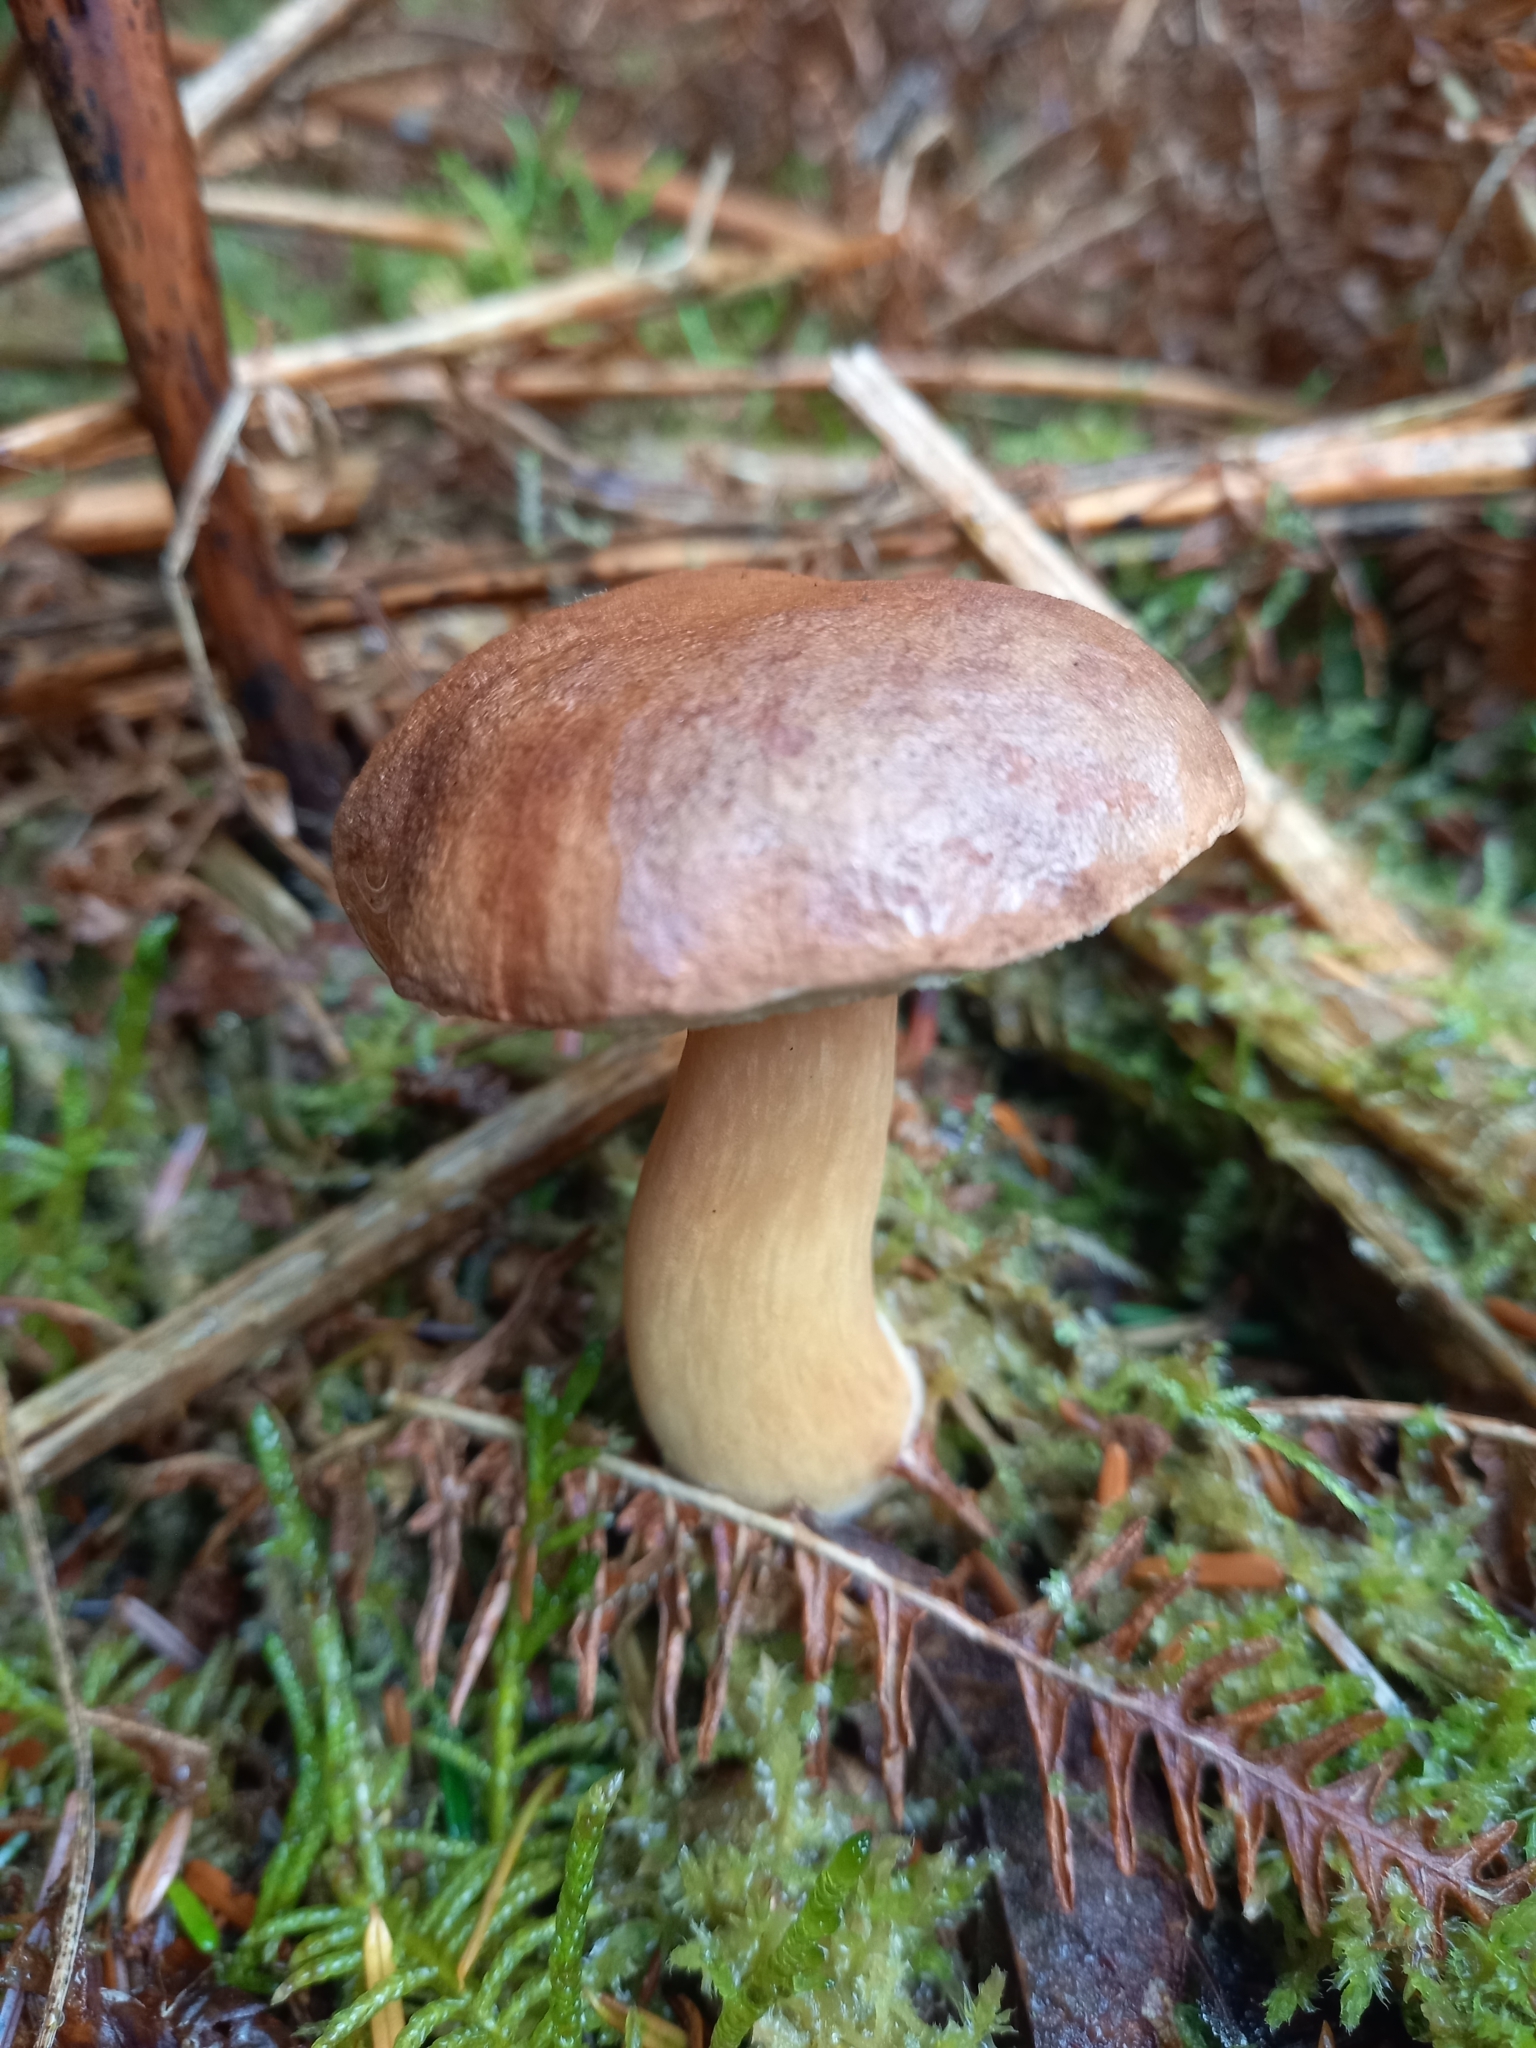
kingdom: Fungi
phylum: Basidiomycota
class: Agaricomycetes
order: Boletales
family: Boletaceae
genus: Imleria
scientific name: Imleria badia
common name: Bay bolete
